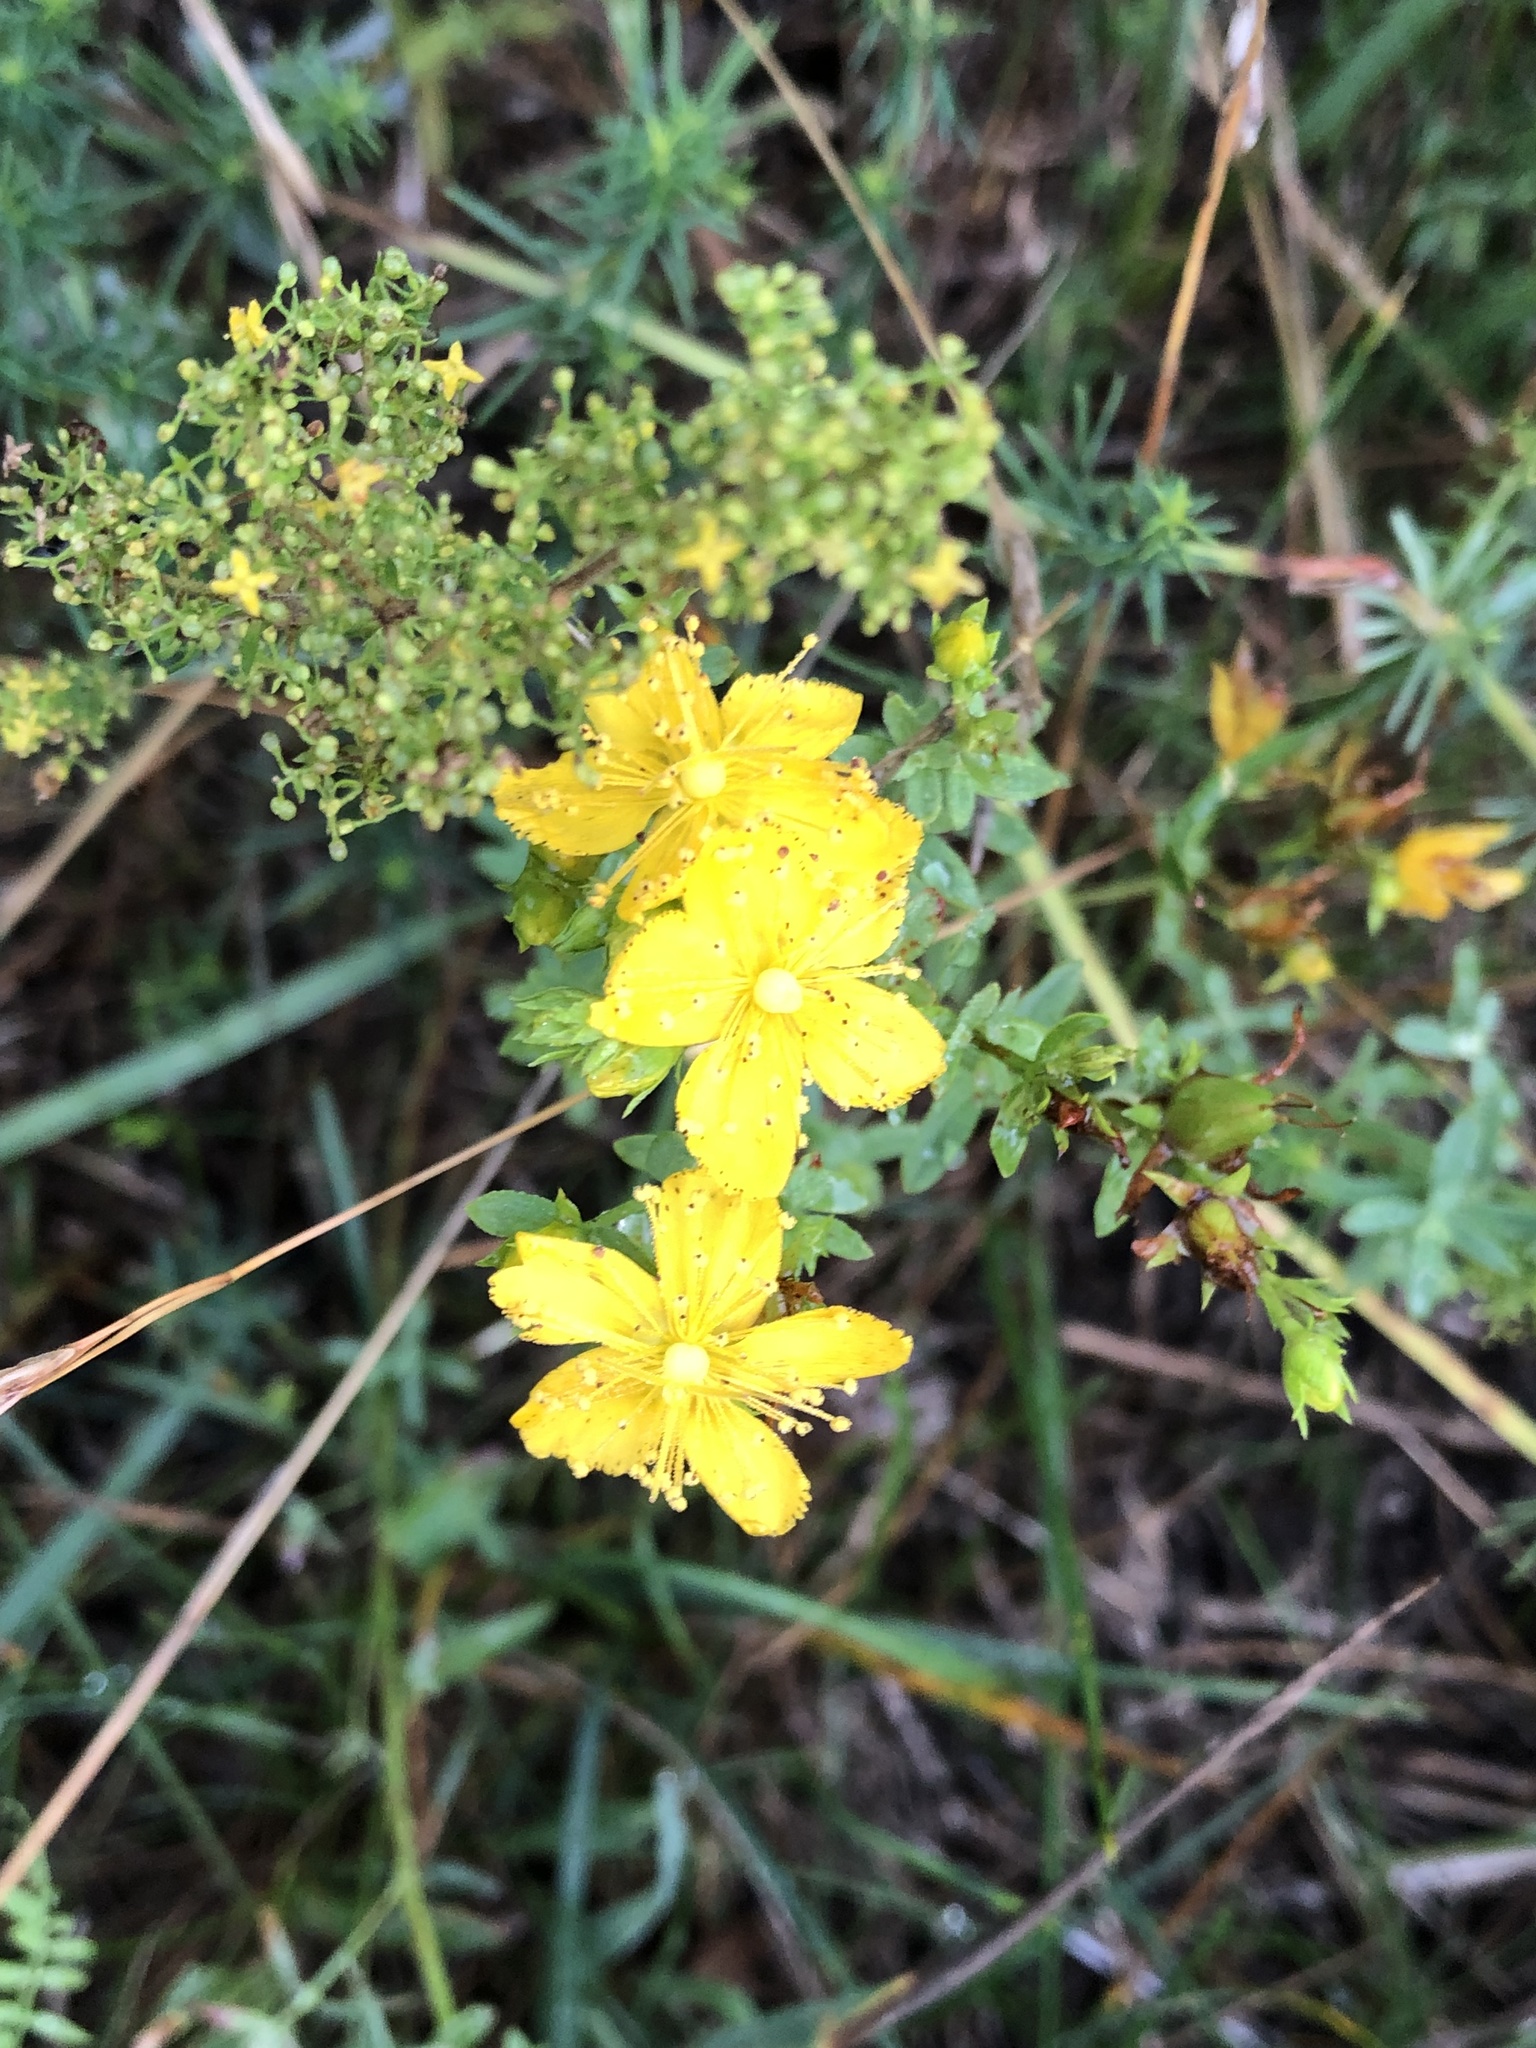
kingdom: Plantae
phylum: Tracheophyta
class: Magnoliopsida
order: Malpighiales
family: Hypericaceae
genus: Hypericum
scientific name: Hypericum perforatum
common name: Common st. johnswort
